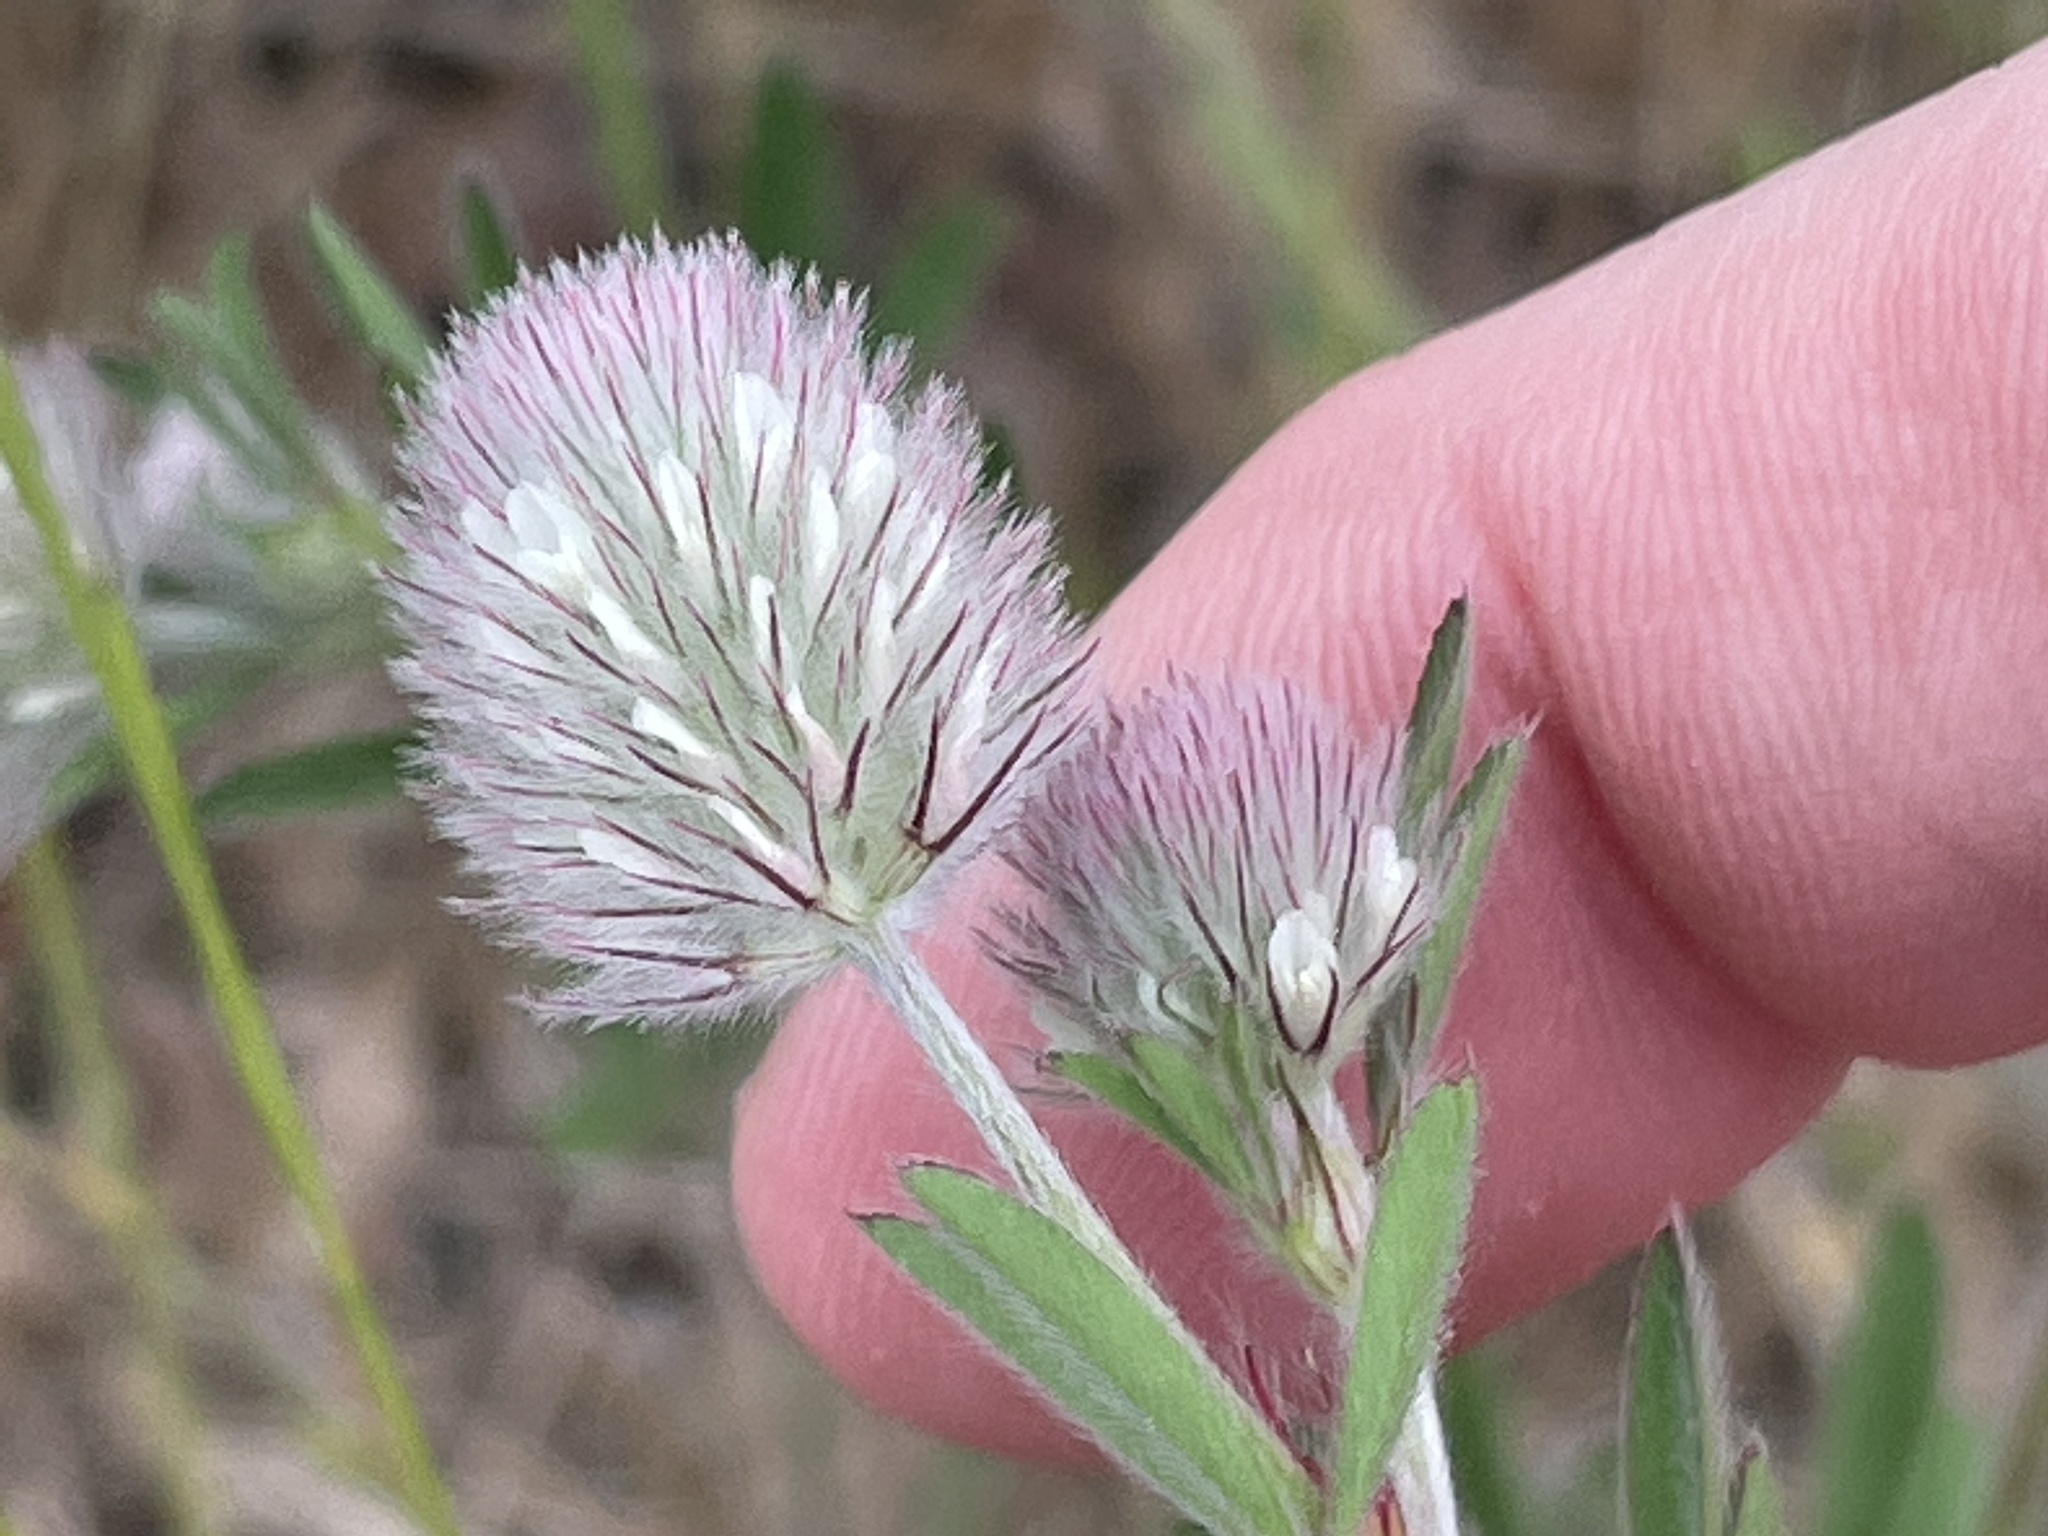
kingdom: Plantae
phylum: Tracheophyta
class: Magnoliopsida
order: Fabales
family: Fabaceae
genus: Trifolium
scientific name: Trifolium arvense
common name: Hare's-foot clover
